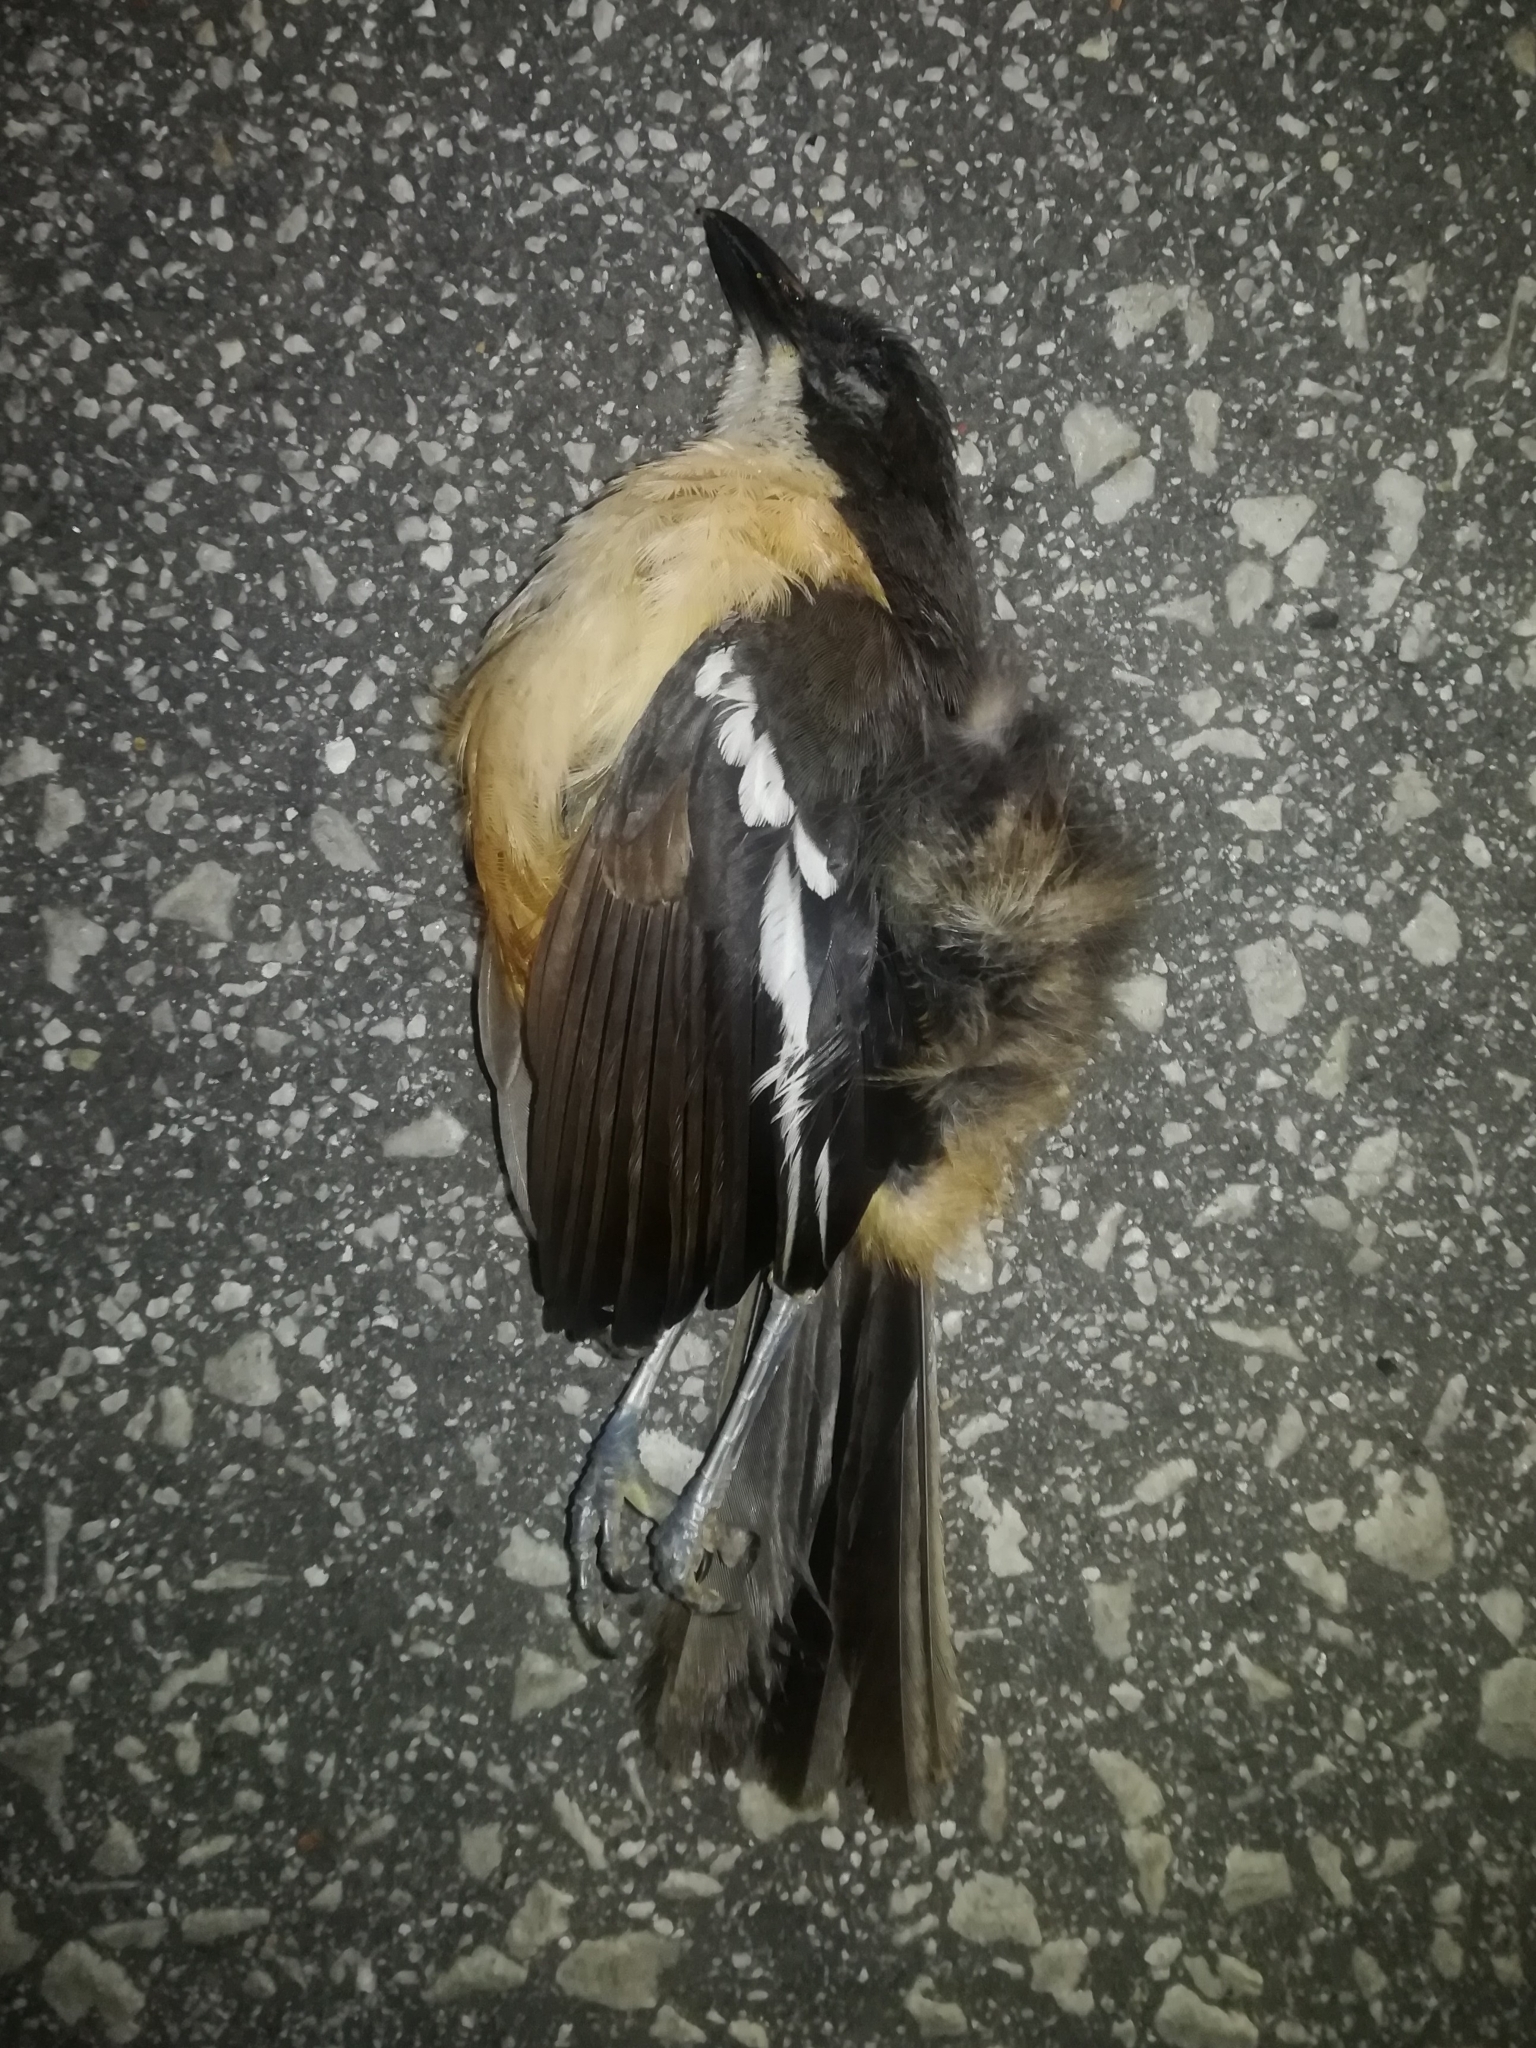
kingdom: Animalia
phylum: Chordata
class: Aves
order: Passeriformes
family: Malaconotidae
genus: Laniarius
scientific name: Laniarius ferrugineus
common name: Southern boubou
